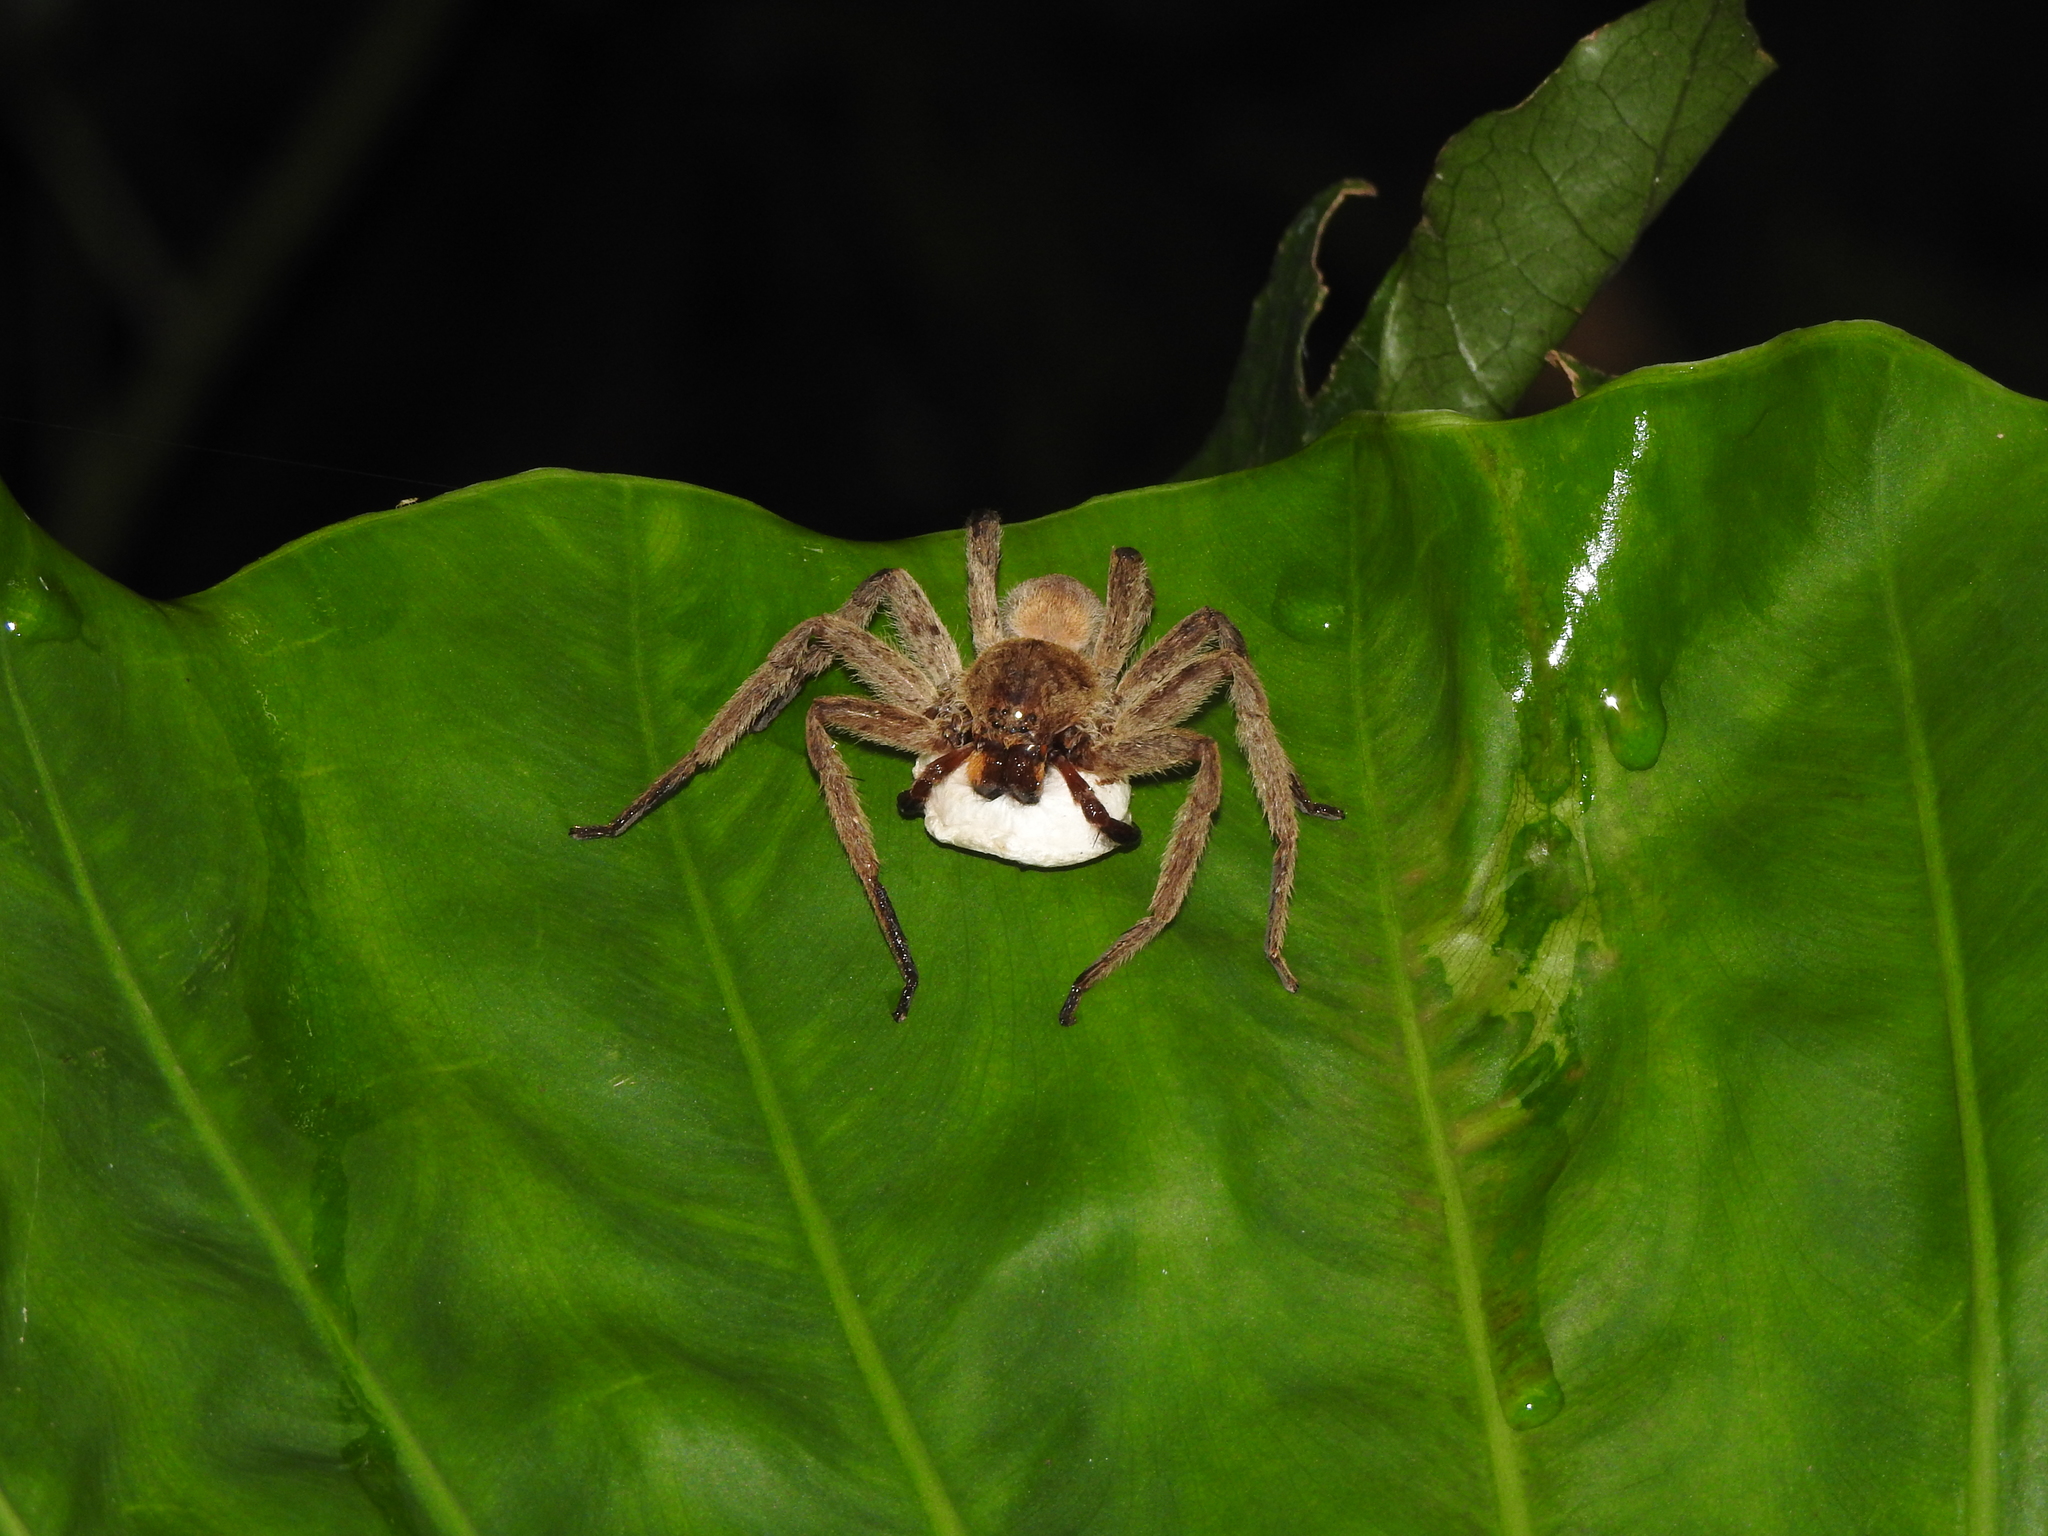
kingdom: Animalia
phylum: Arthropoda
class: Arachnida
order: Araneae
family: Sparassidae
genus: Heteropoda
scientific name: Heteropoda pingtungensis
